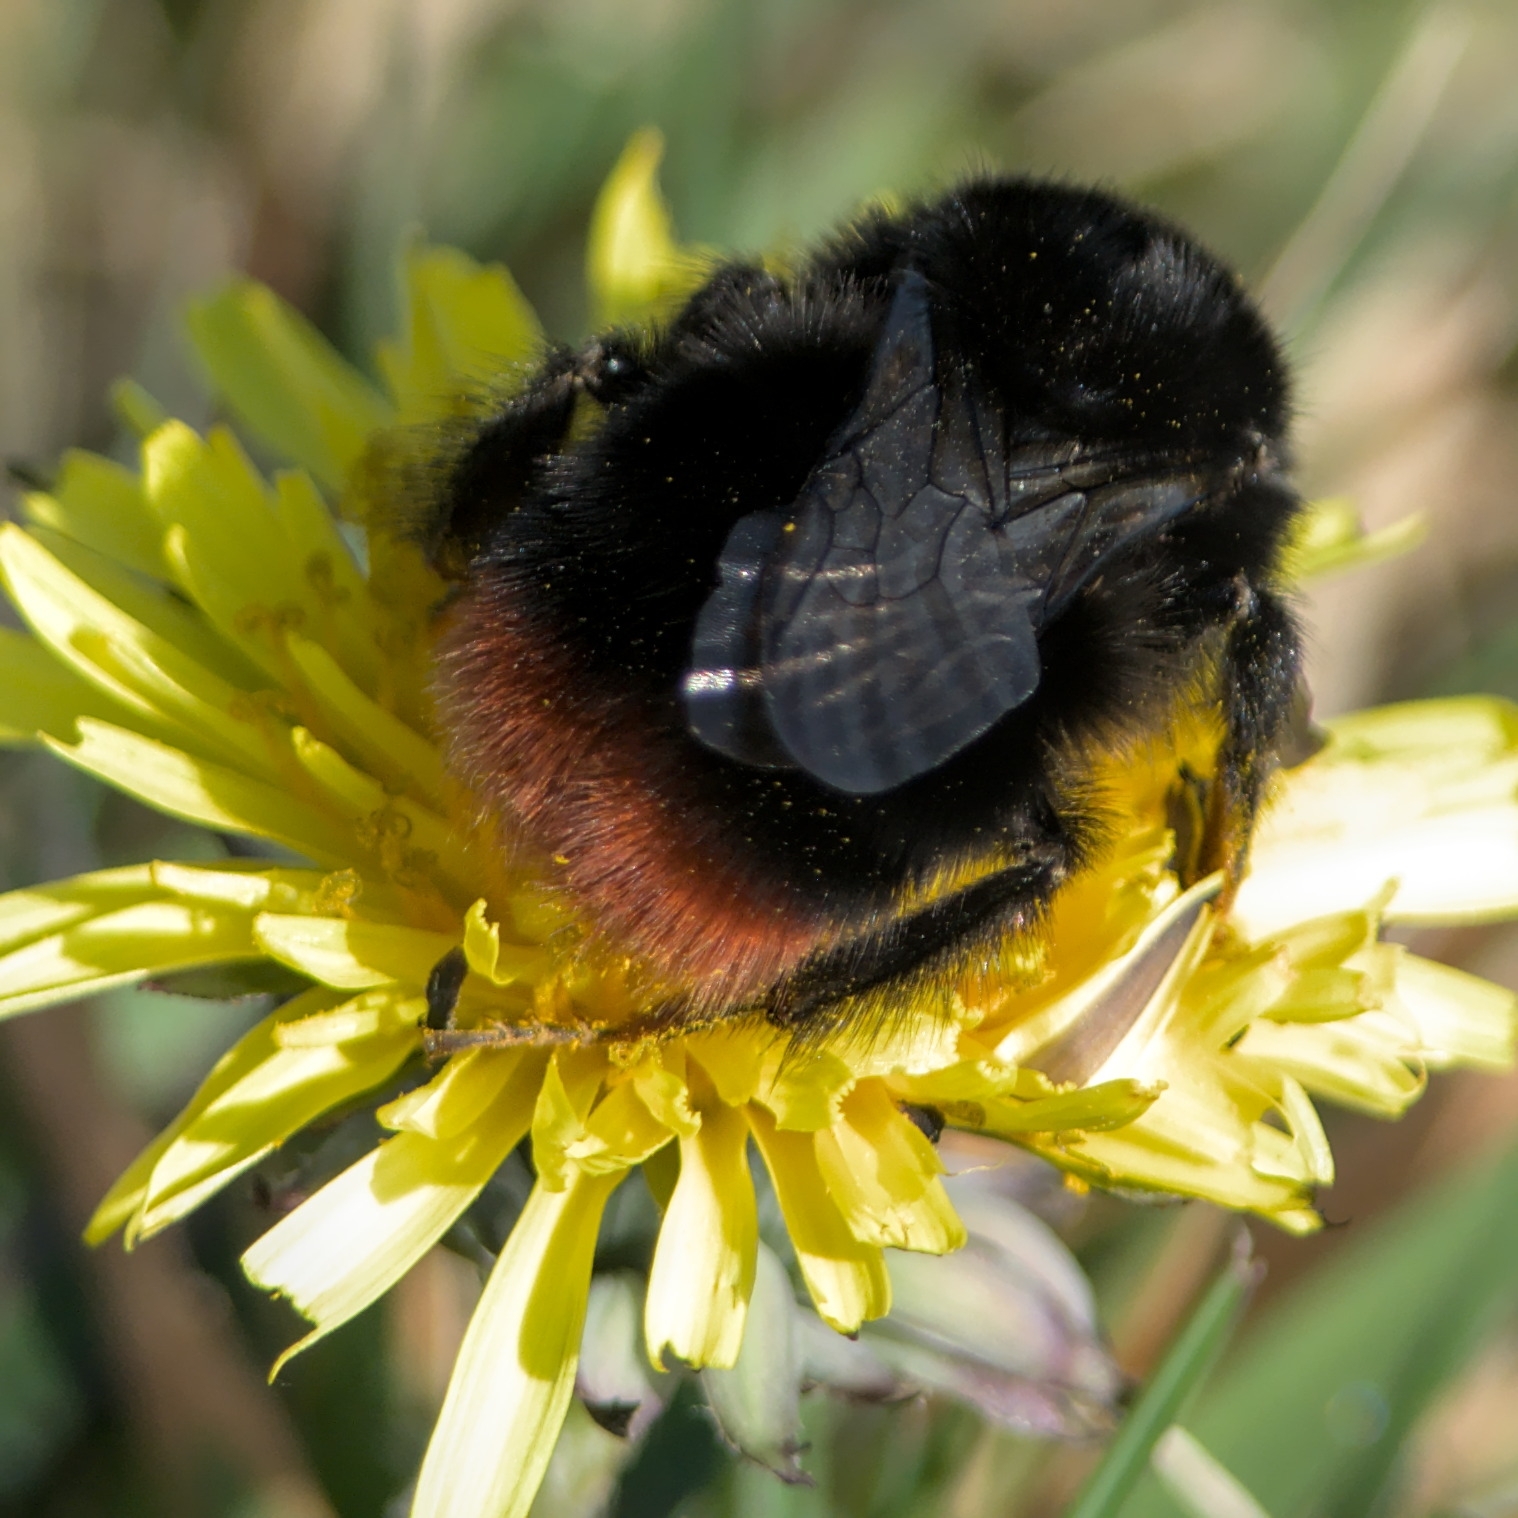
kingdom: Animalia
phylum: Arthropoda
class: Insecta
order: Hymenoptera
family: Apidae
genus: Bombus
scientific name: Bombus lapidarius
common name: Large red-tailed humble-bee
